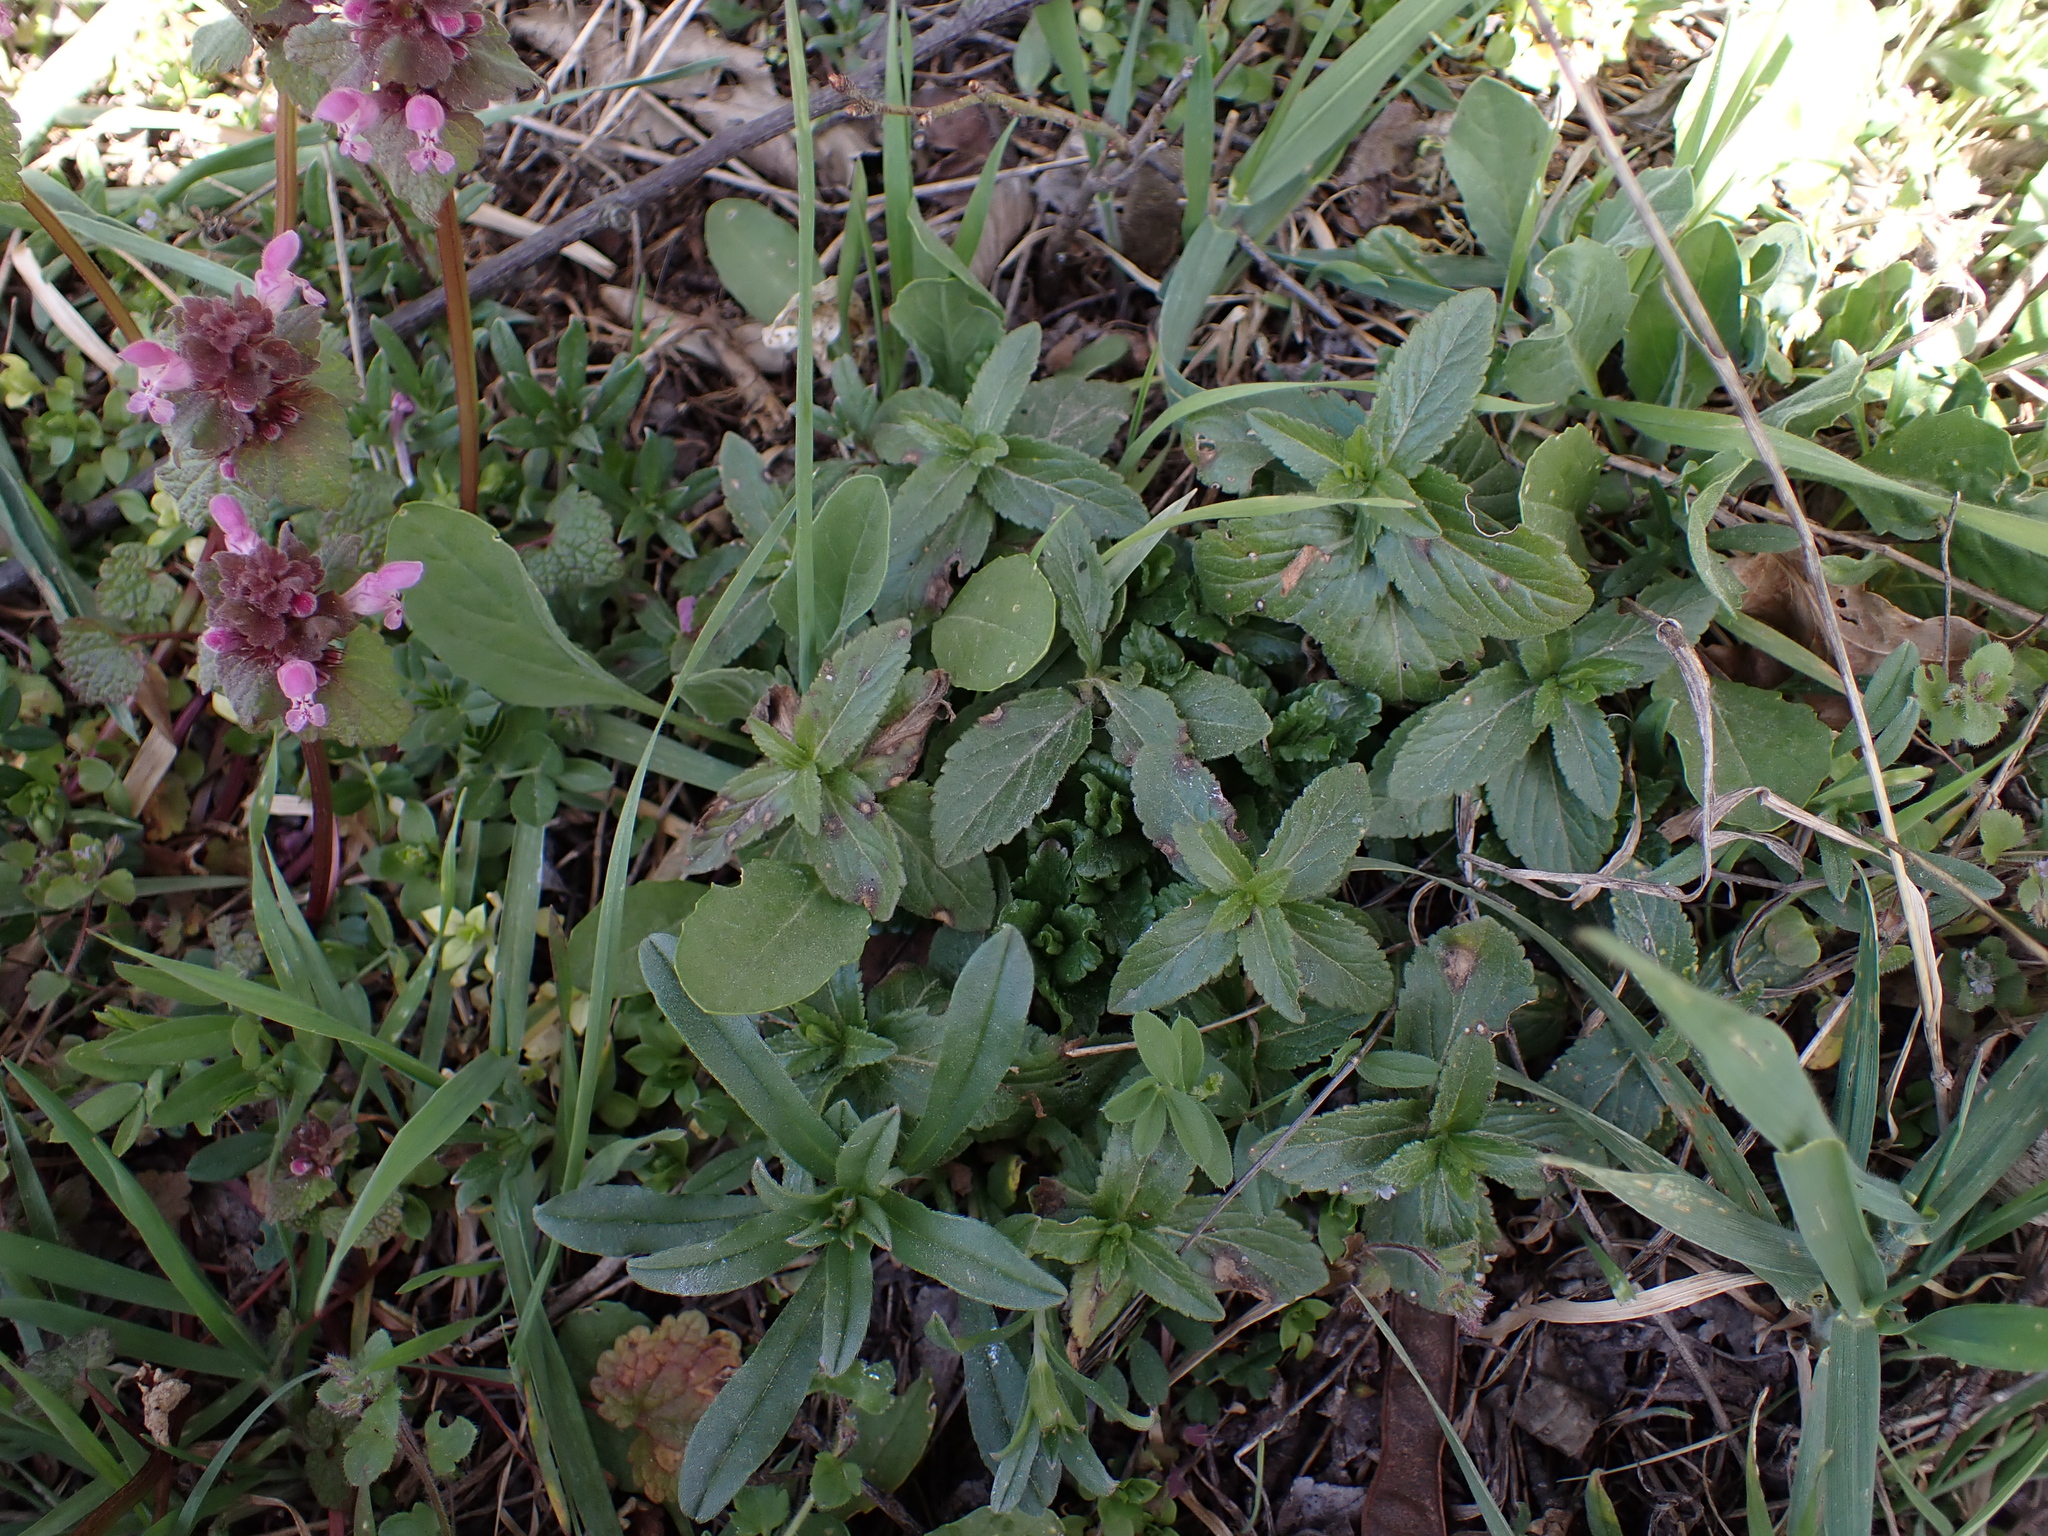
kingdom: Plantae
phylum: Tracheophyta
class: Magnoliopsida
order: Lamiales
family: Plantaginaceae
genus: Veronica
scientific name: Veronica teucrium
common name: Large speedwell
